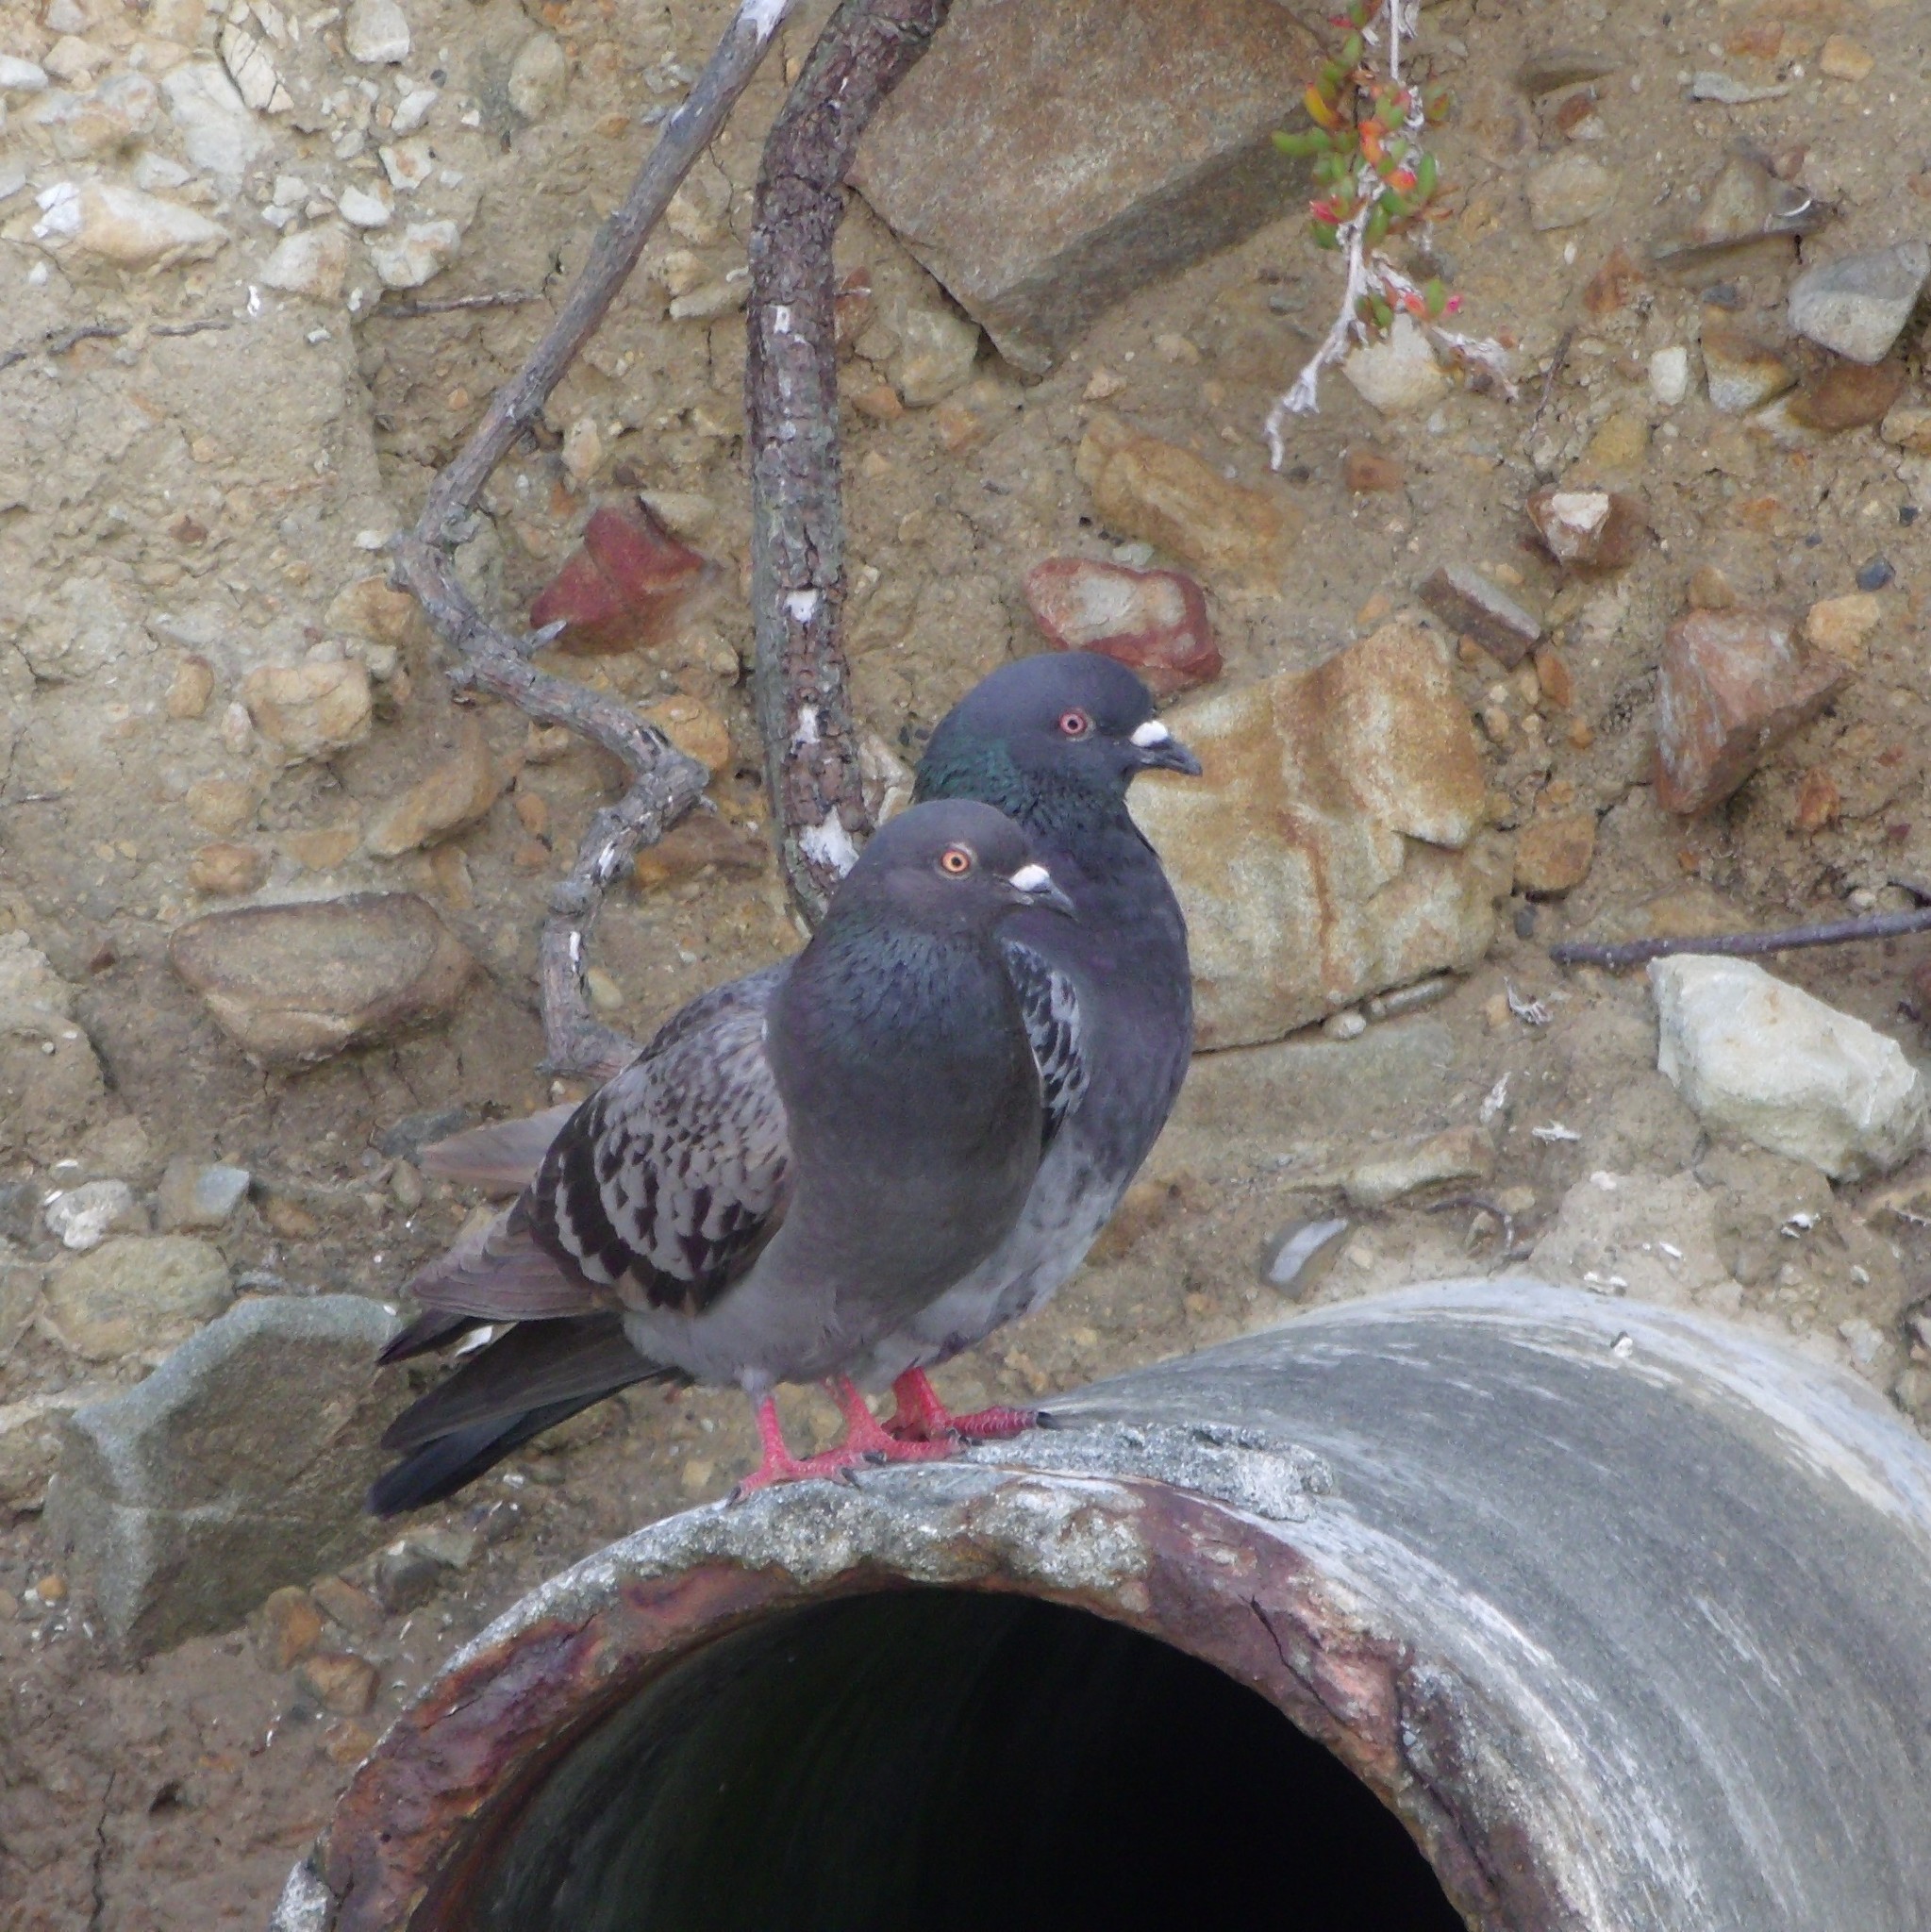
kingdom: Animalia
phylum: Chordata
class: Aves
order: Columbiformes
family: Columbidae
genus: Columba
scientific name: Columba livia
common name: Rock pigeon
